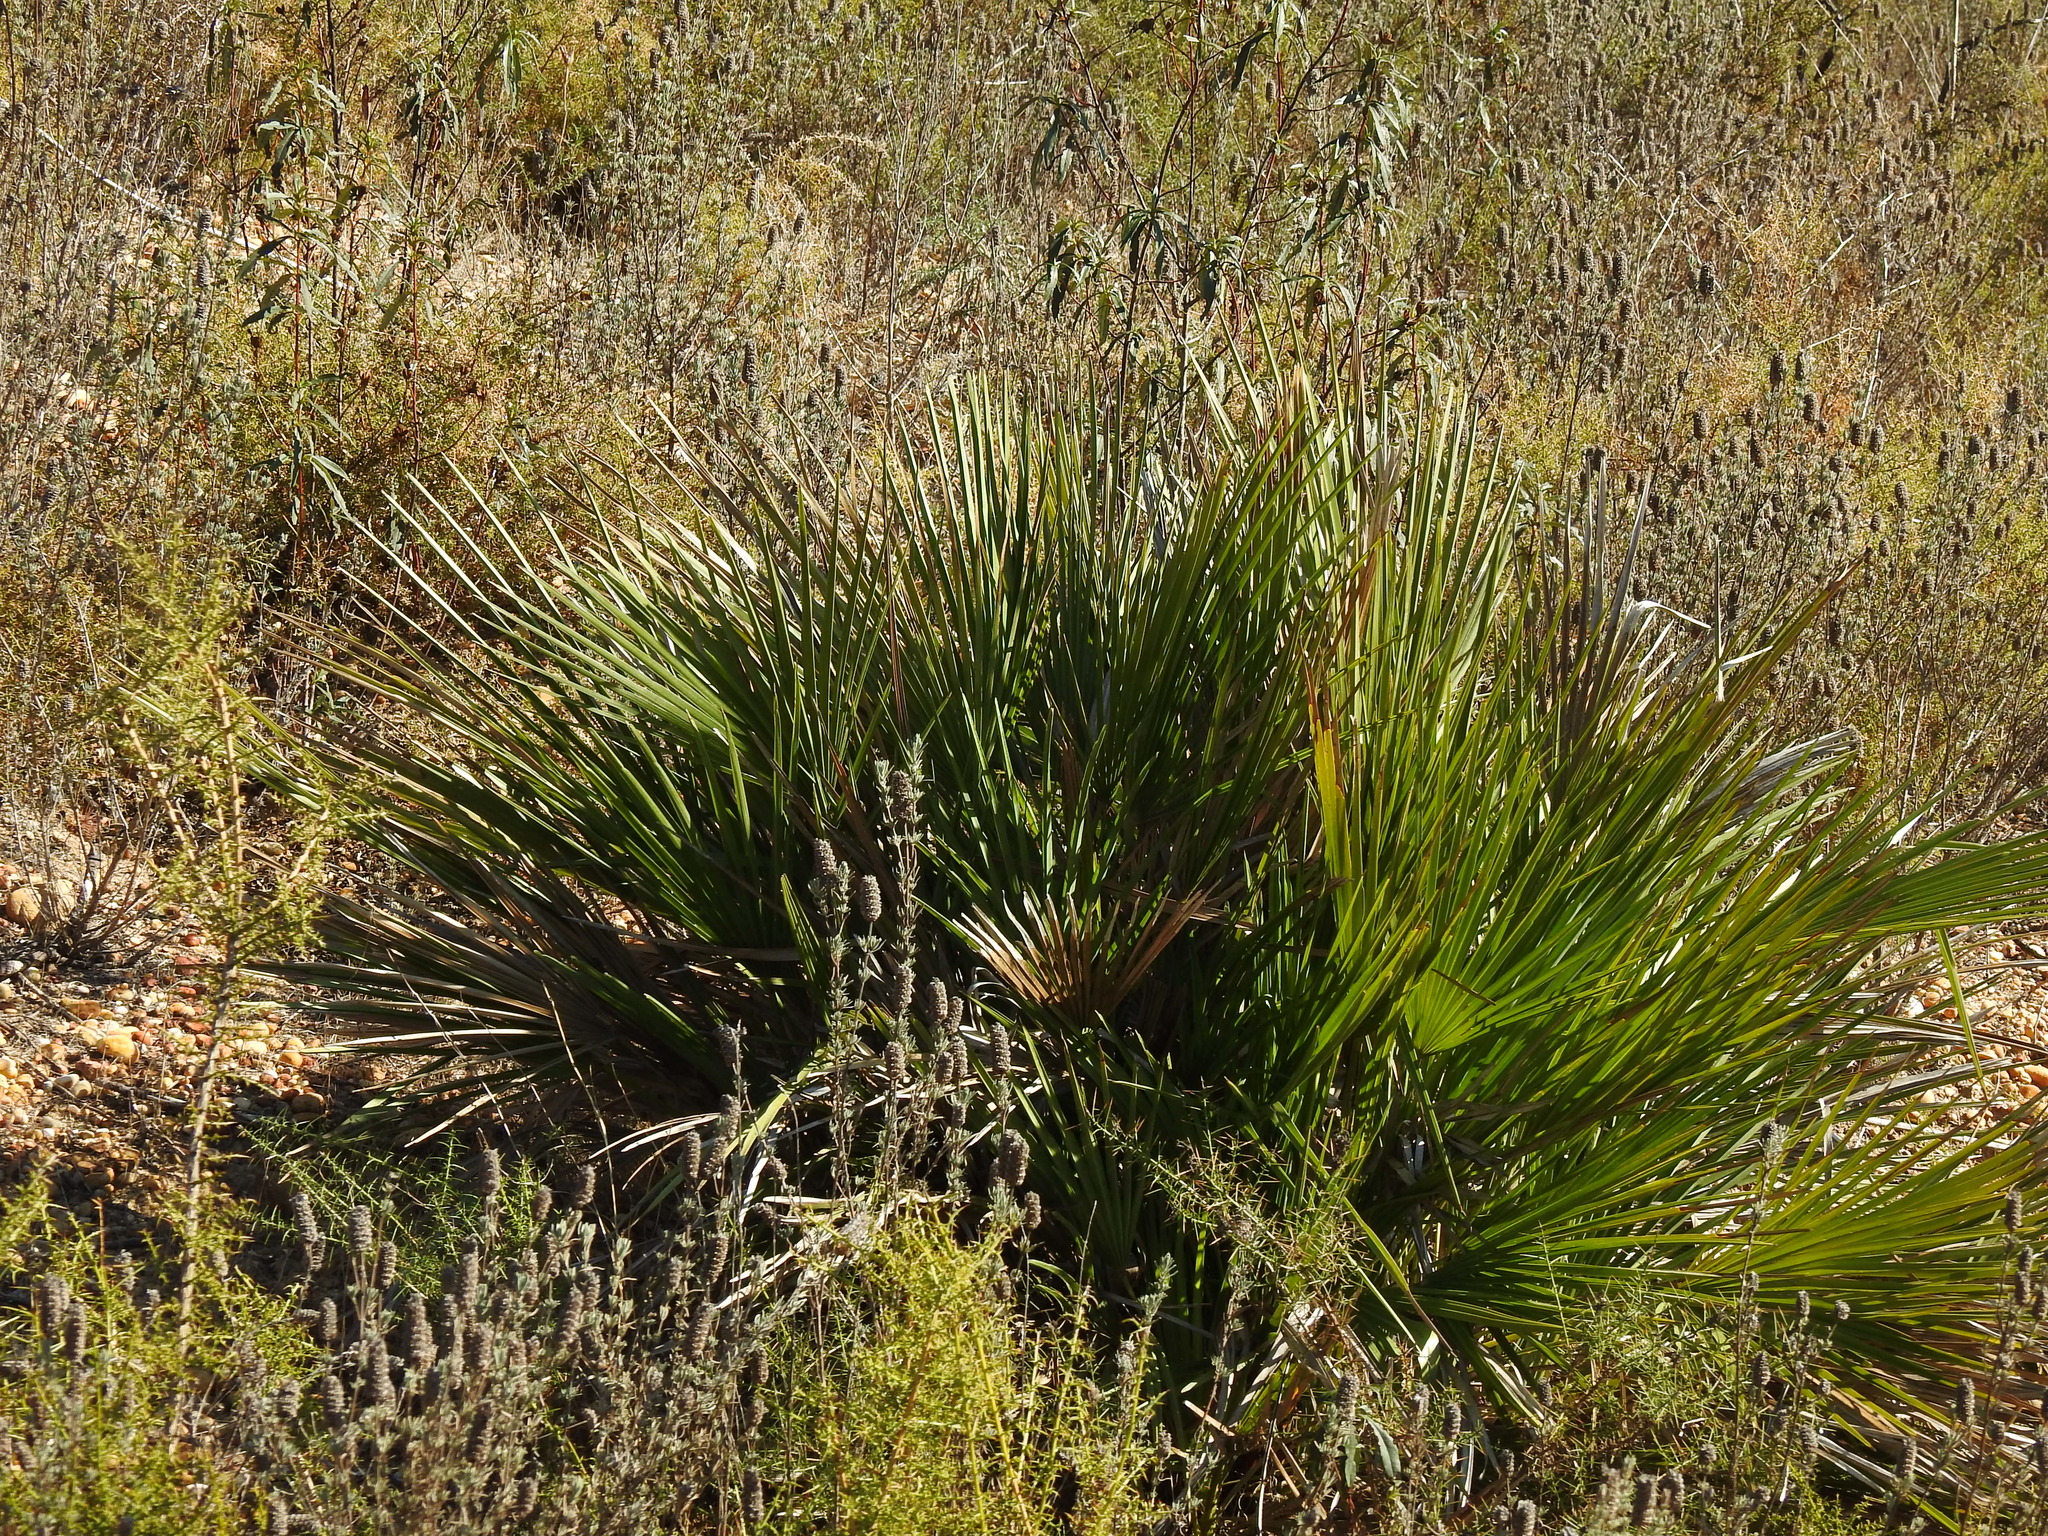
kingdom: Plantae
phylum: Tracheophyta
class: Liliopsida
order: Arecales
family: Arecaceae
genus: Chamaerops
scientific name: Chamaerops humilis
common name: Dwarf fan palm
